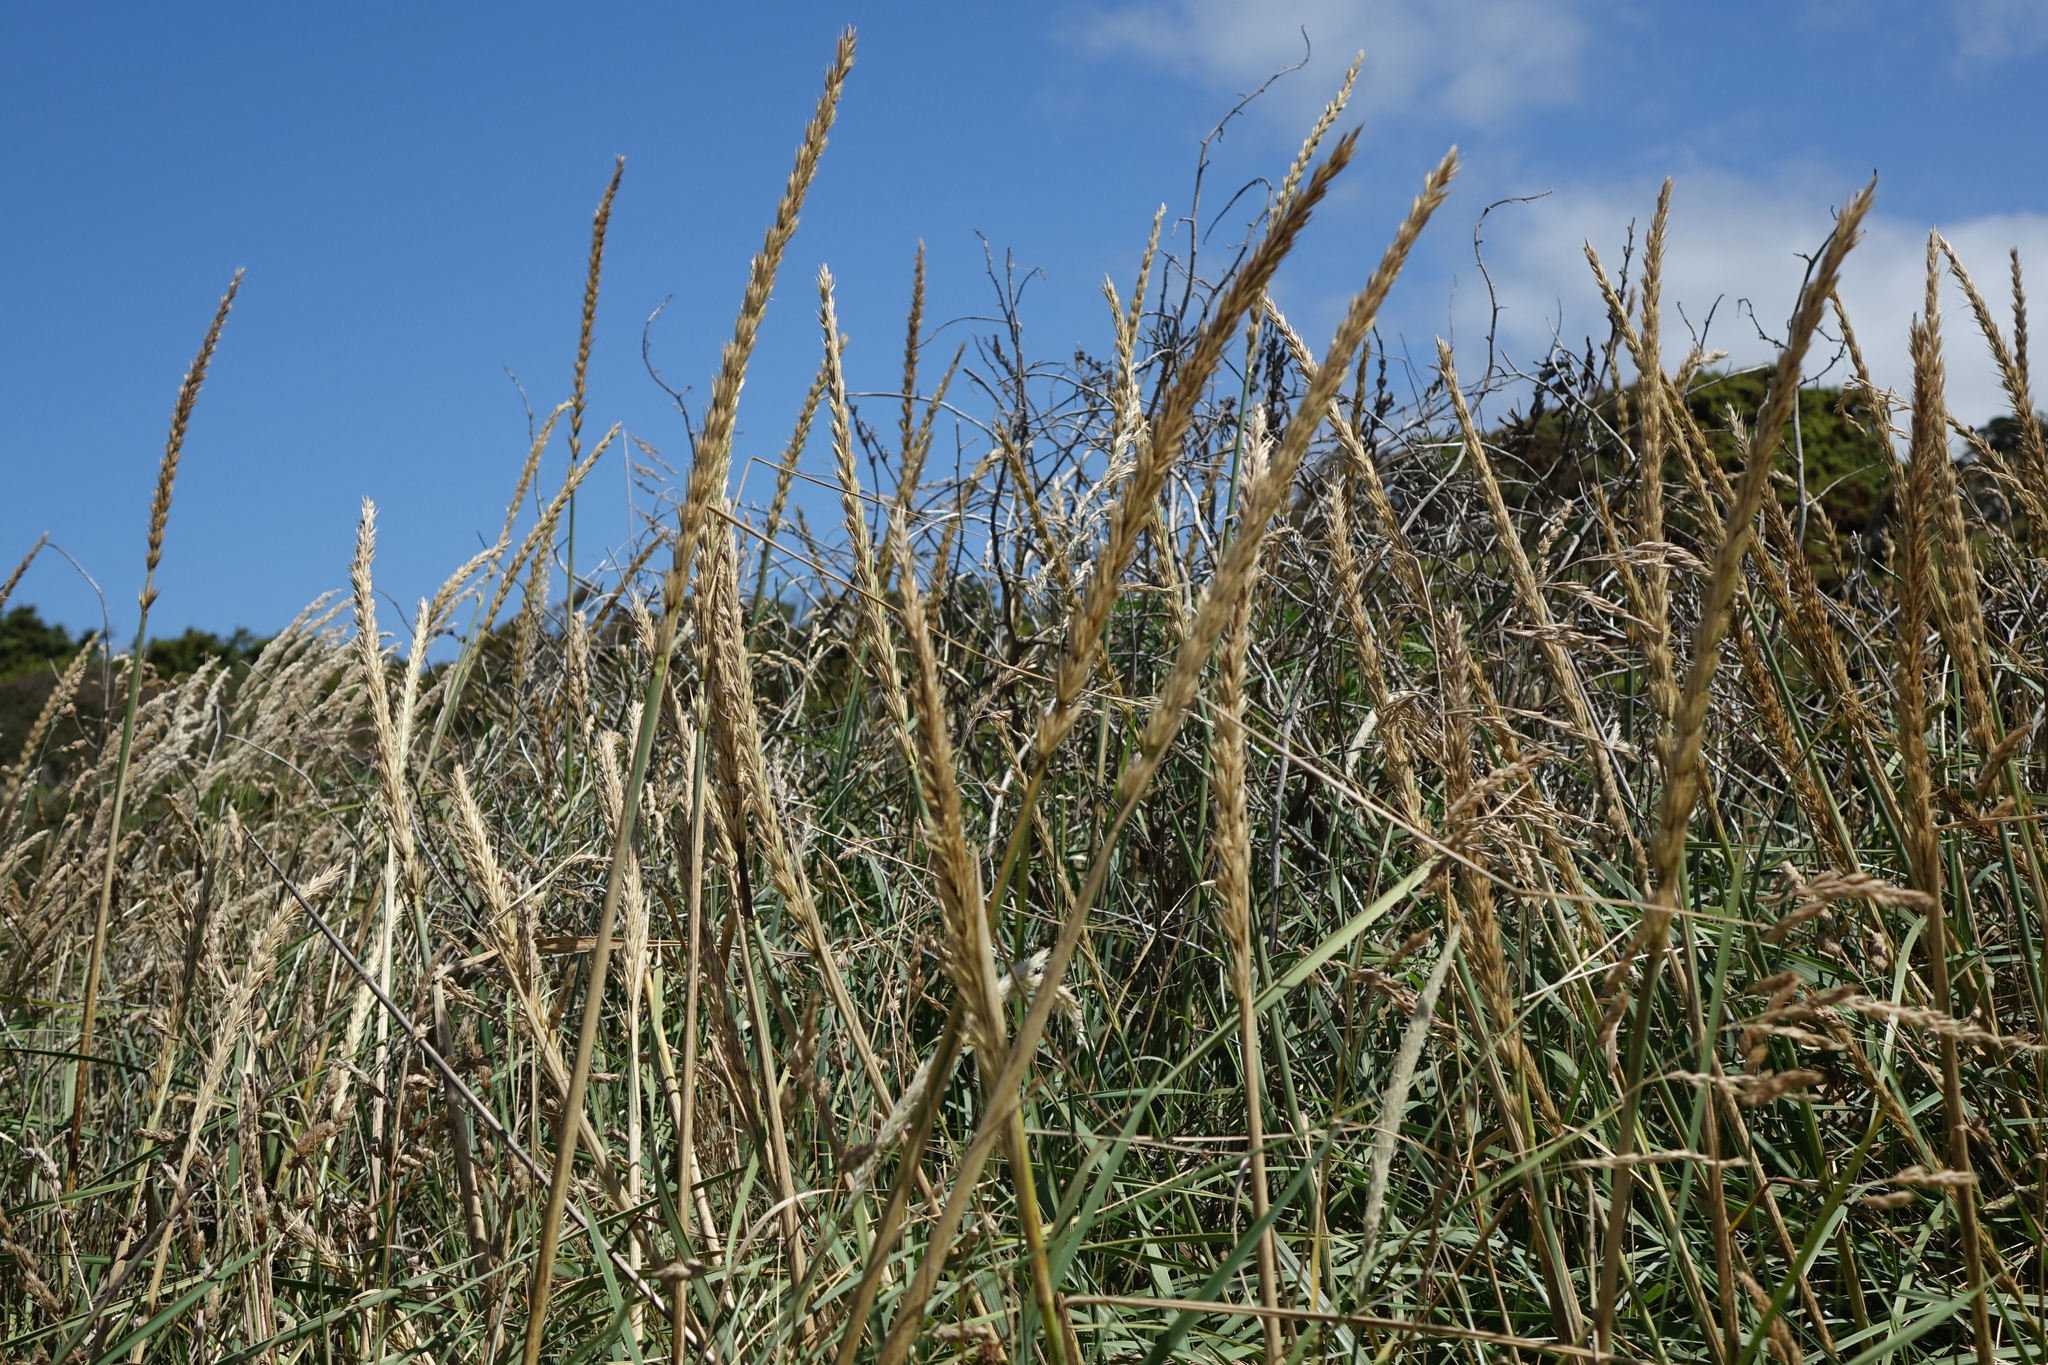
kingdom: Plantae
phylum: Tracheophyta
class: Liliopsida
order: Poales
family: Poaceae
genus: Leymus
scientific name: Leymus arenarius
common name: Lyme-grass
